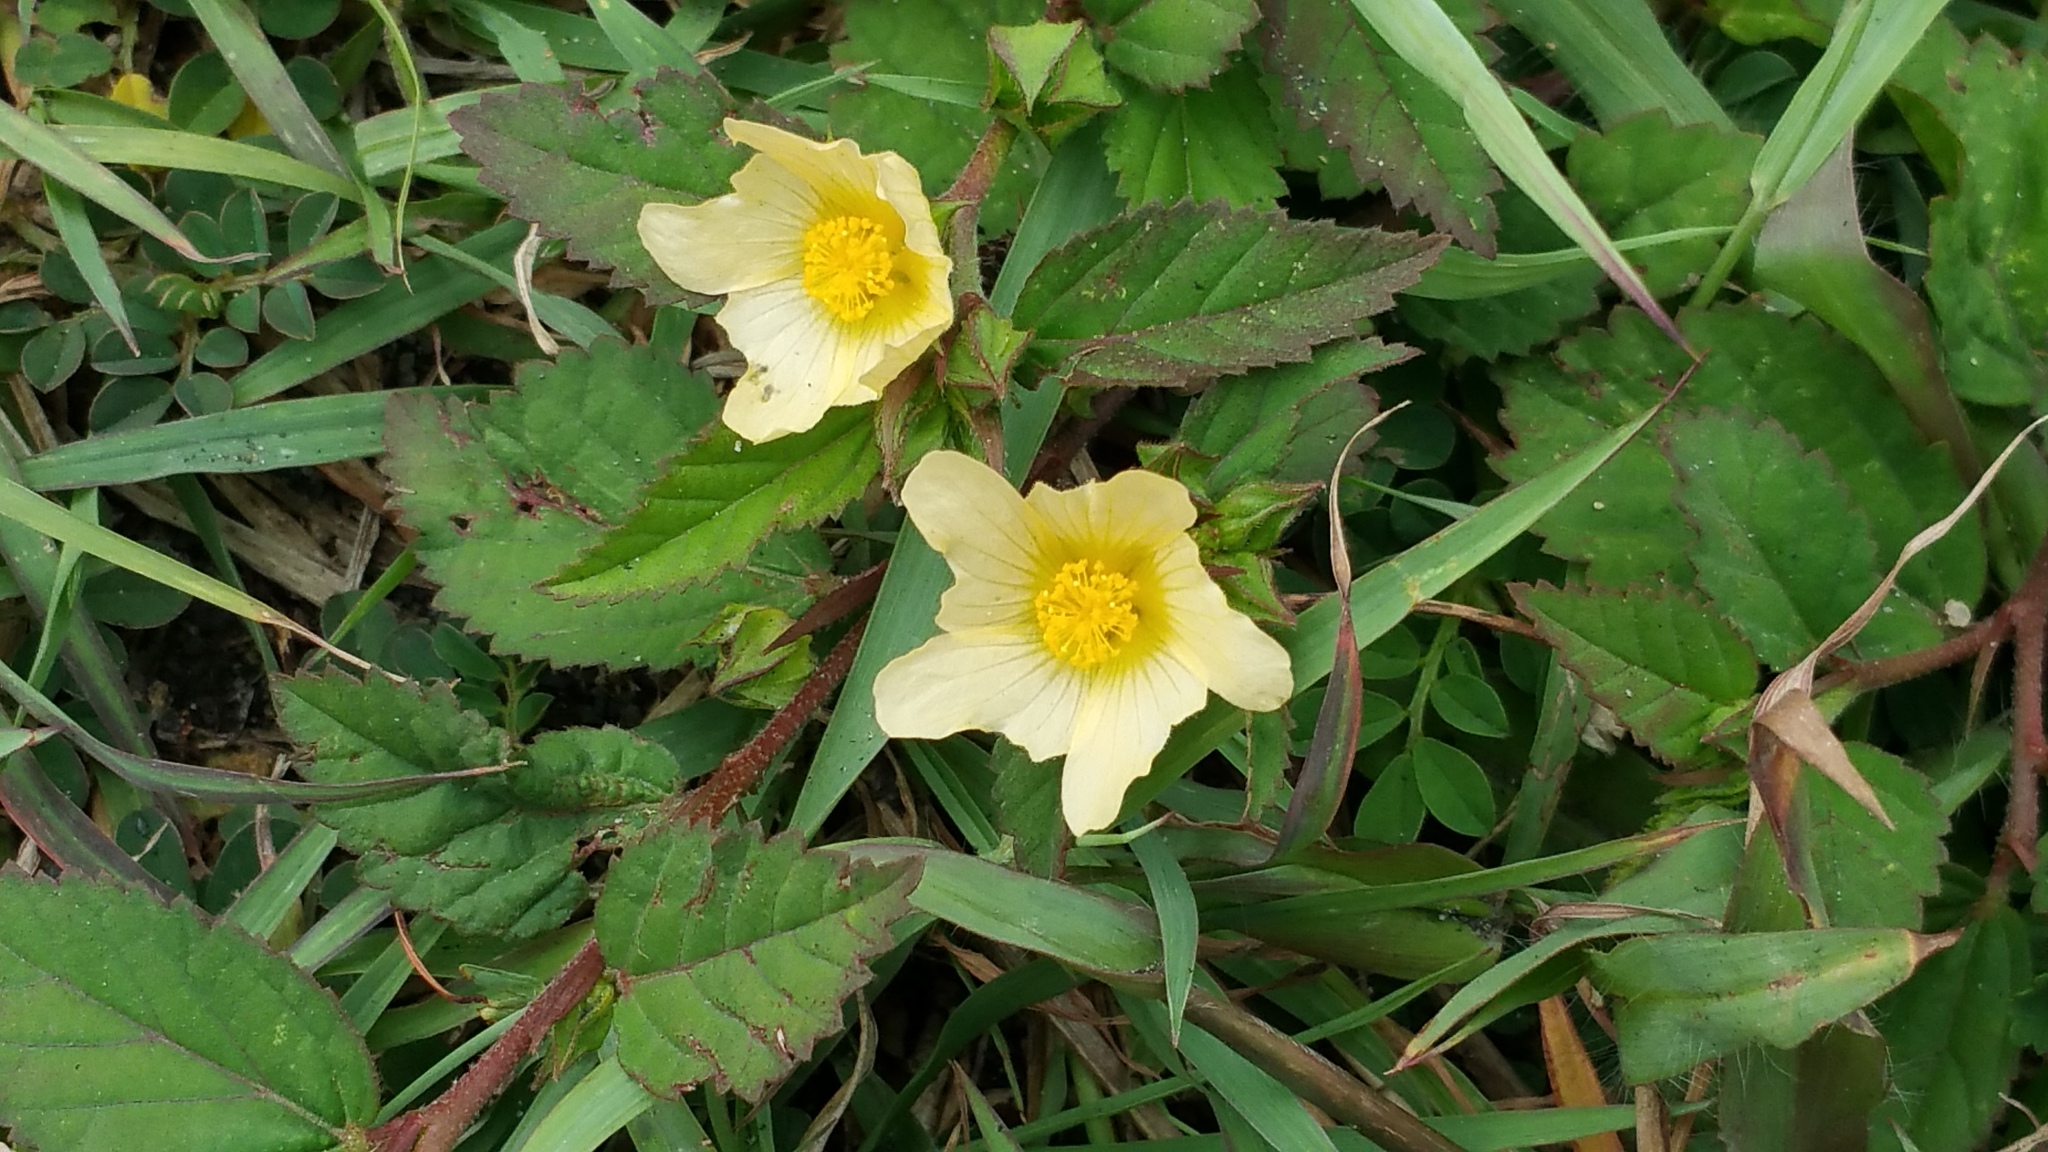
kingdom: Plantae
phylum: Tracheophyta
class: Magnoliopsida
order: Malvales
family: Malvaceae
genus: Sida
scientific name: Sida ulmifolia
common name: Broom weed
